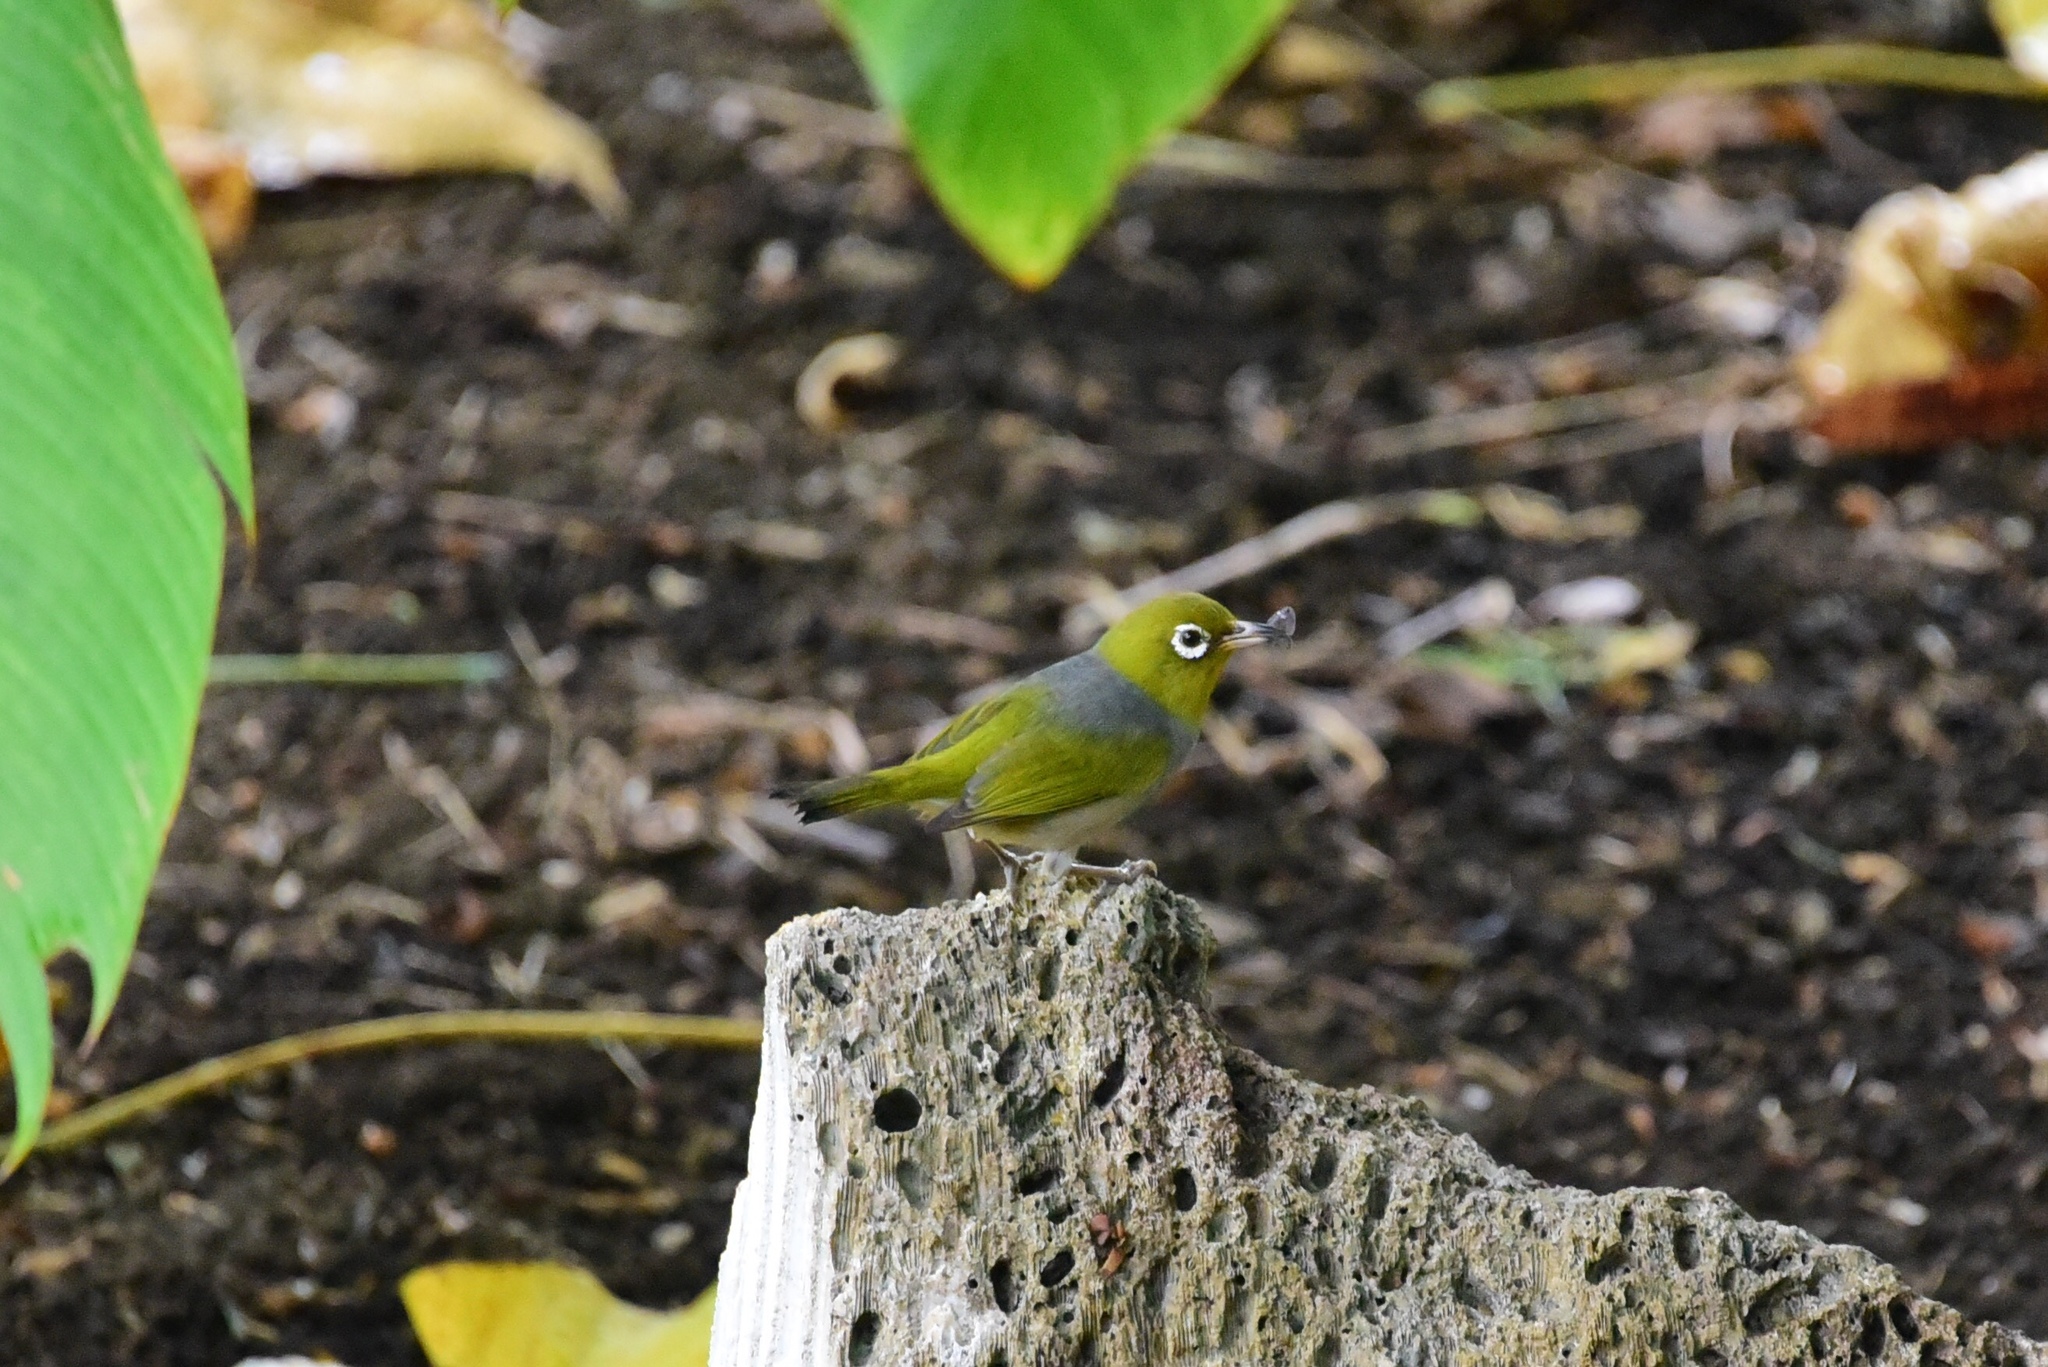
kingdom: Animalia
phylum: Chordata
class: Aves
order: Passeriformes
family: Zosteropidae
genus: Zosterops
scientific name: Zosterops lateralis
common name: Silvereye
